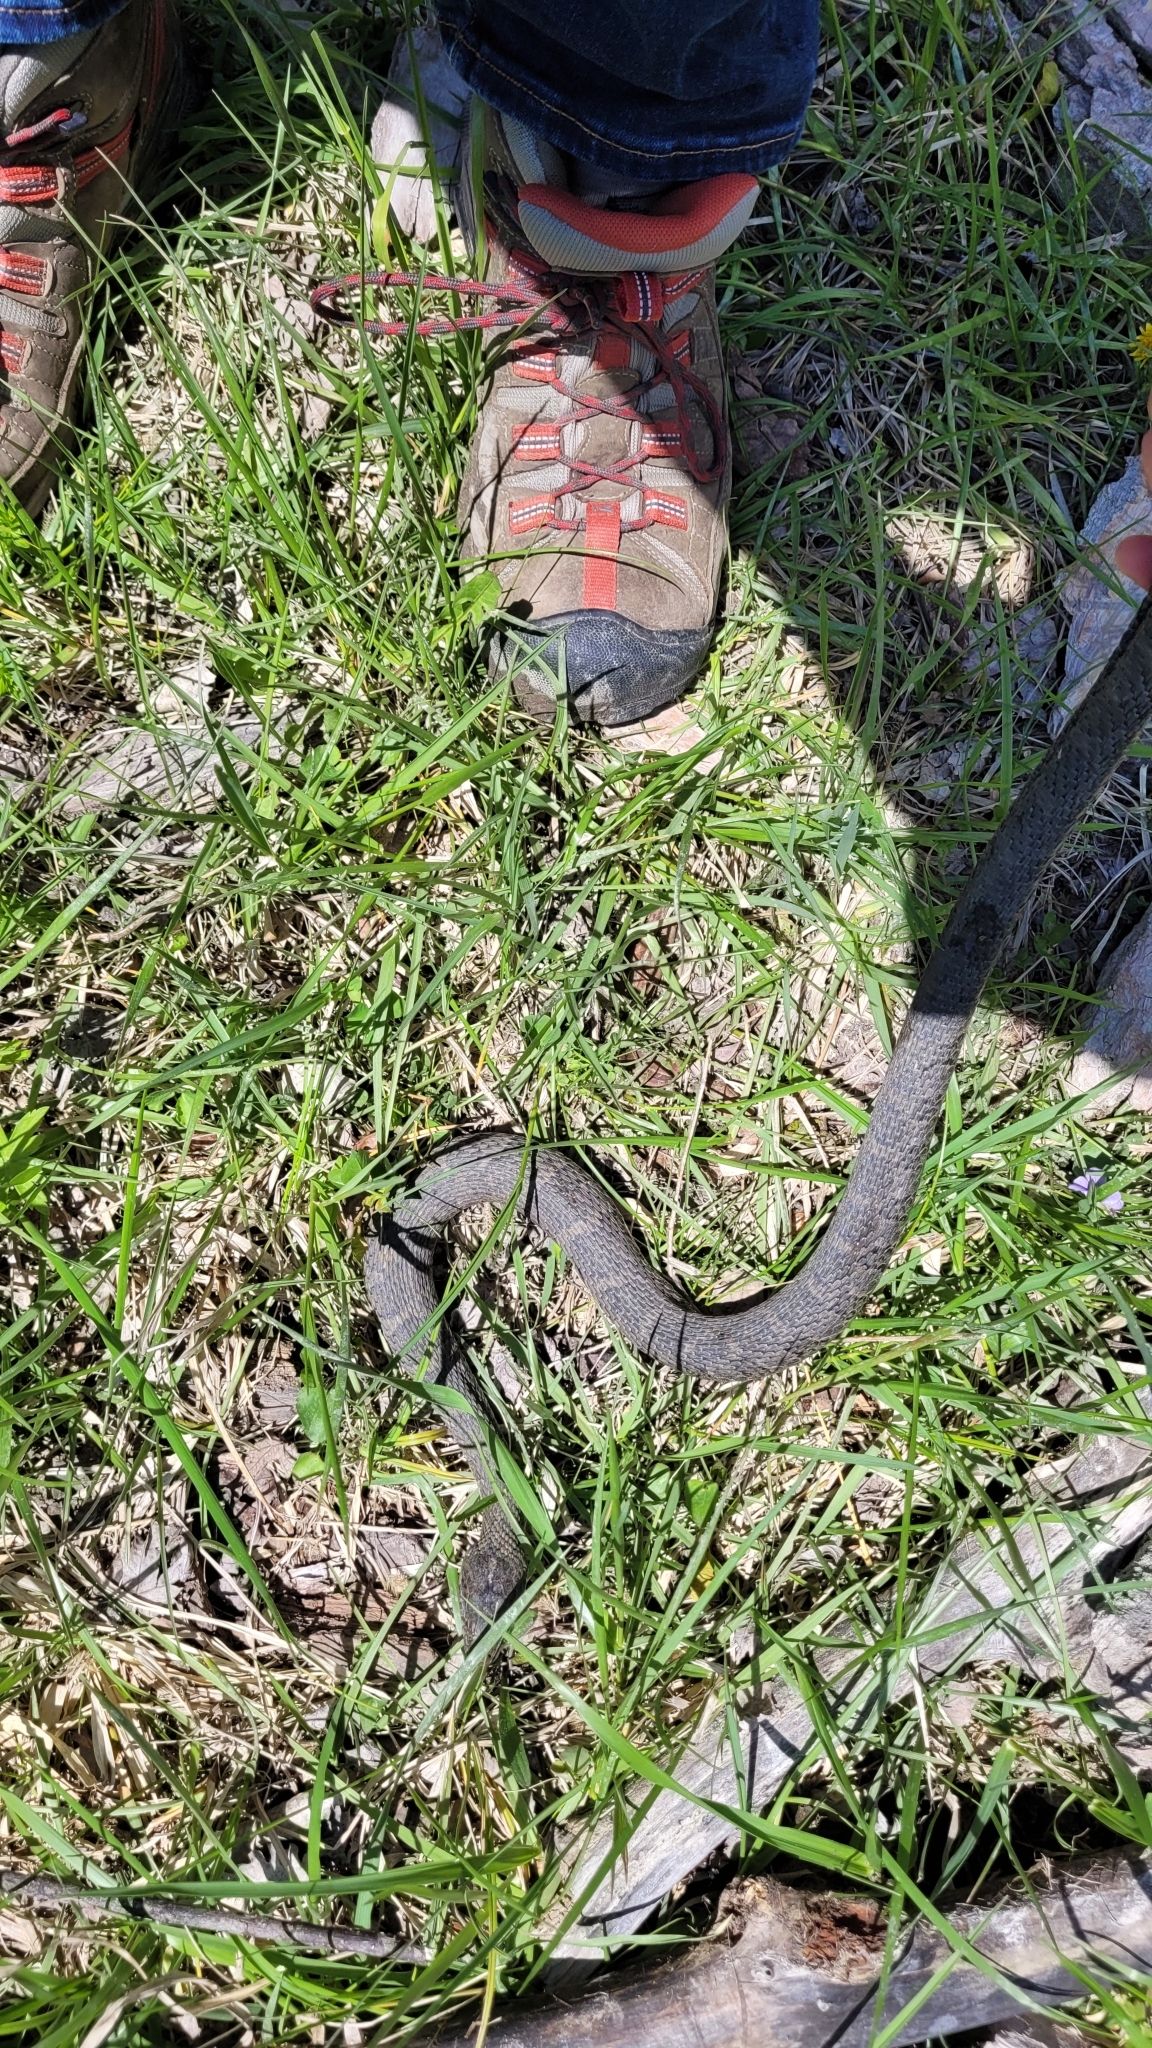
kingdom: Animalia
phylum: Chordata
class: Squamata
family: Colubridae
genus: Nerodia
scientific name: Nerodia sipedon
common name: Northern water snake
